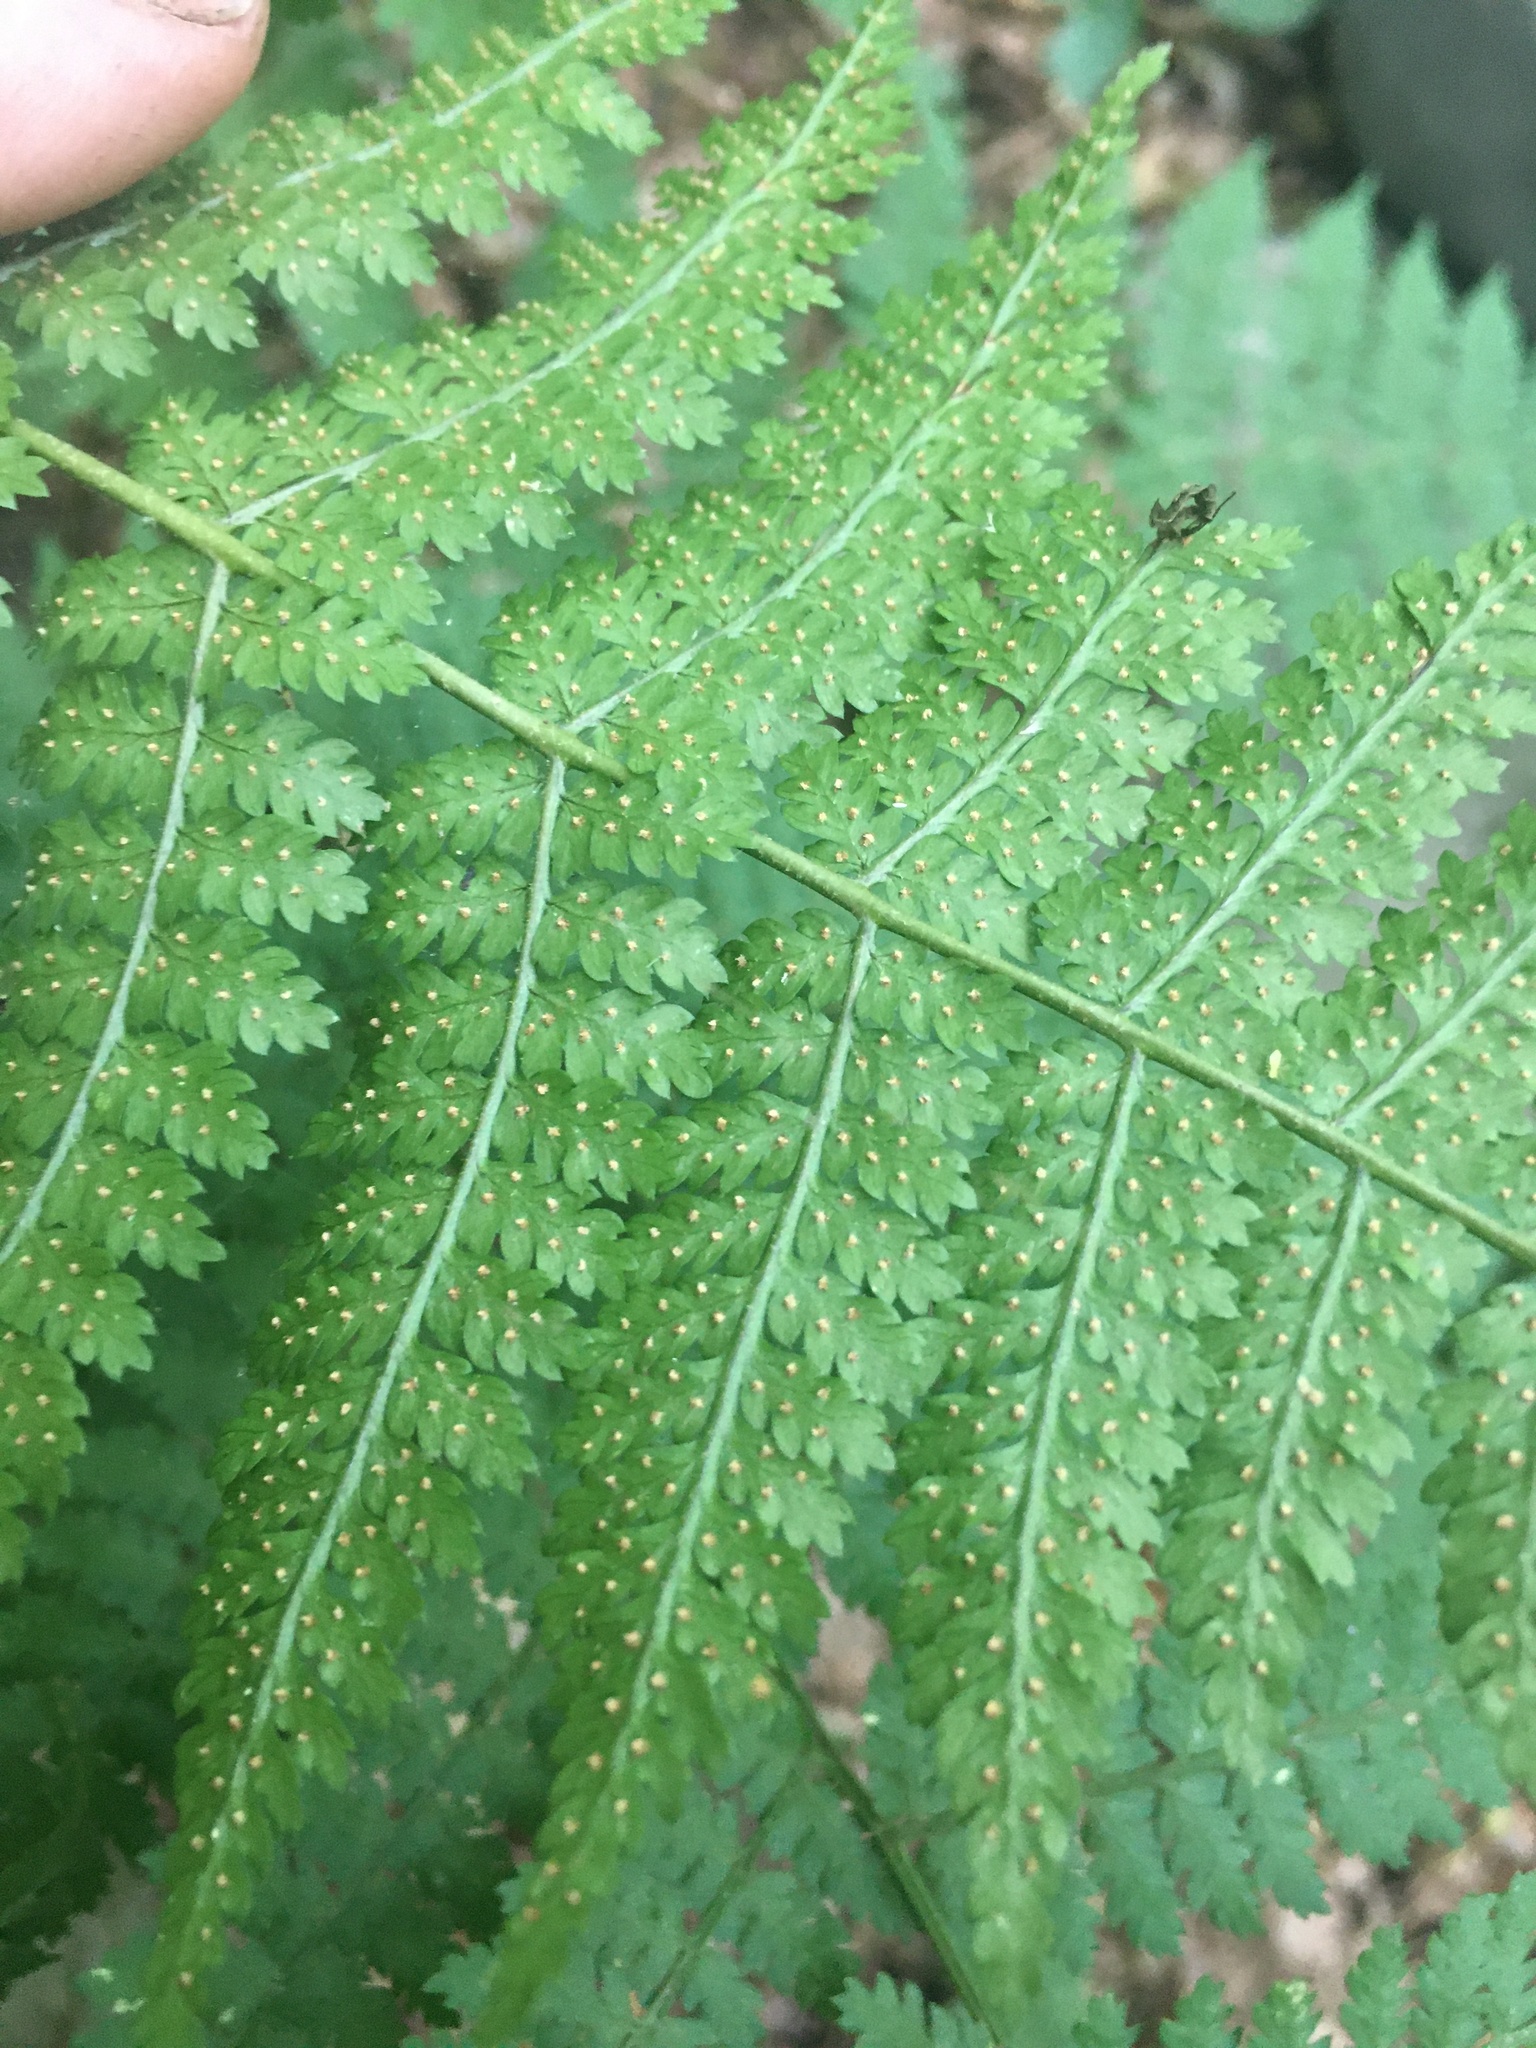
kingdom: Plantae
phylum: Tracheophyta
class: Polypodiopsida
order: Polypodiales
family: Dryopteridaceae
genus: Dryopteris
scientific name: Dryopteris intermedia
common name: Evergreen wood fern
